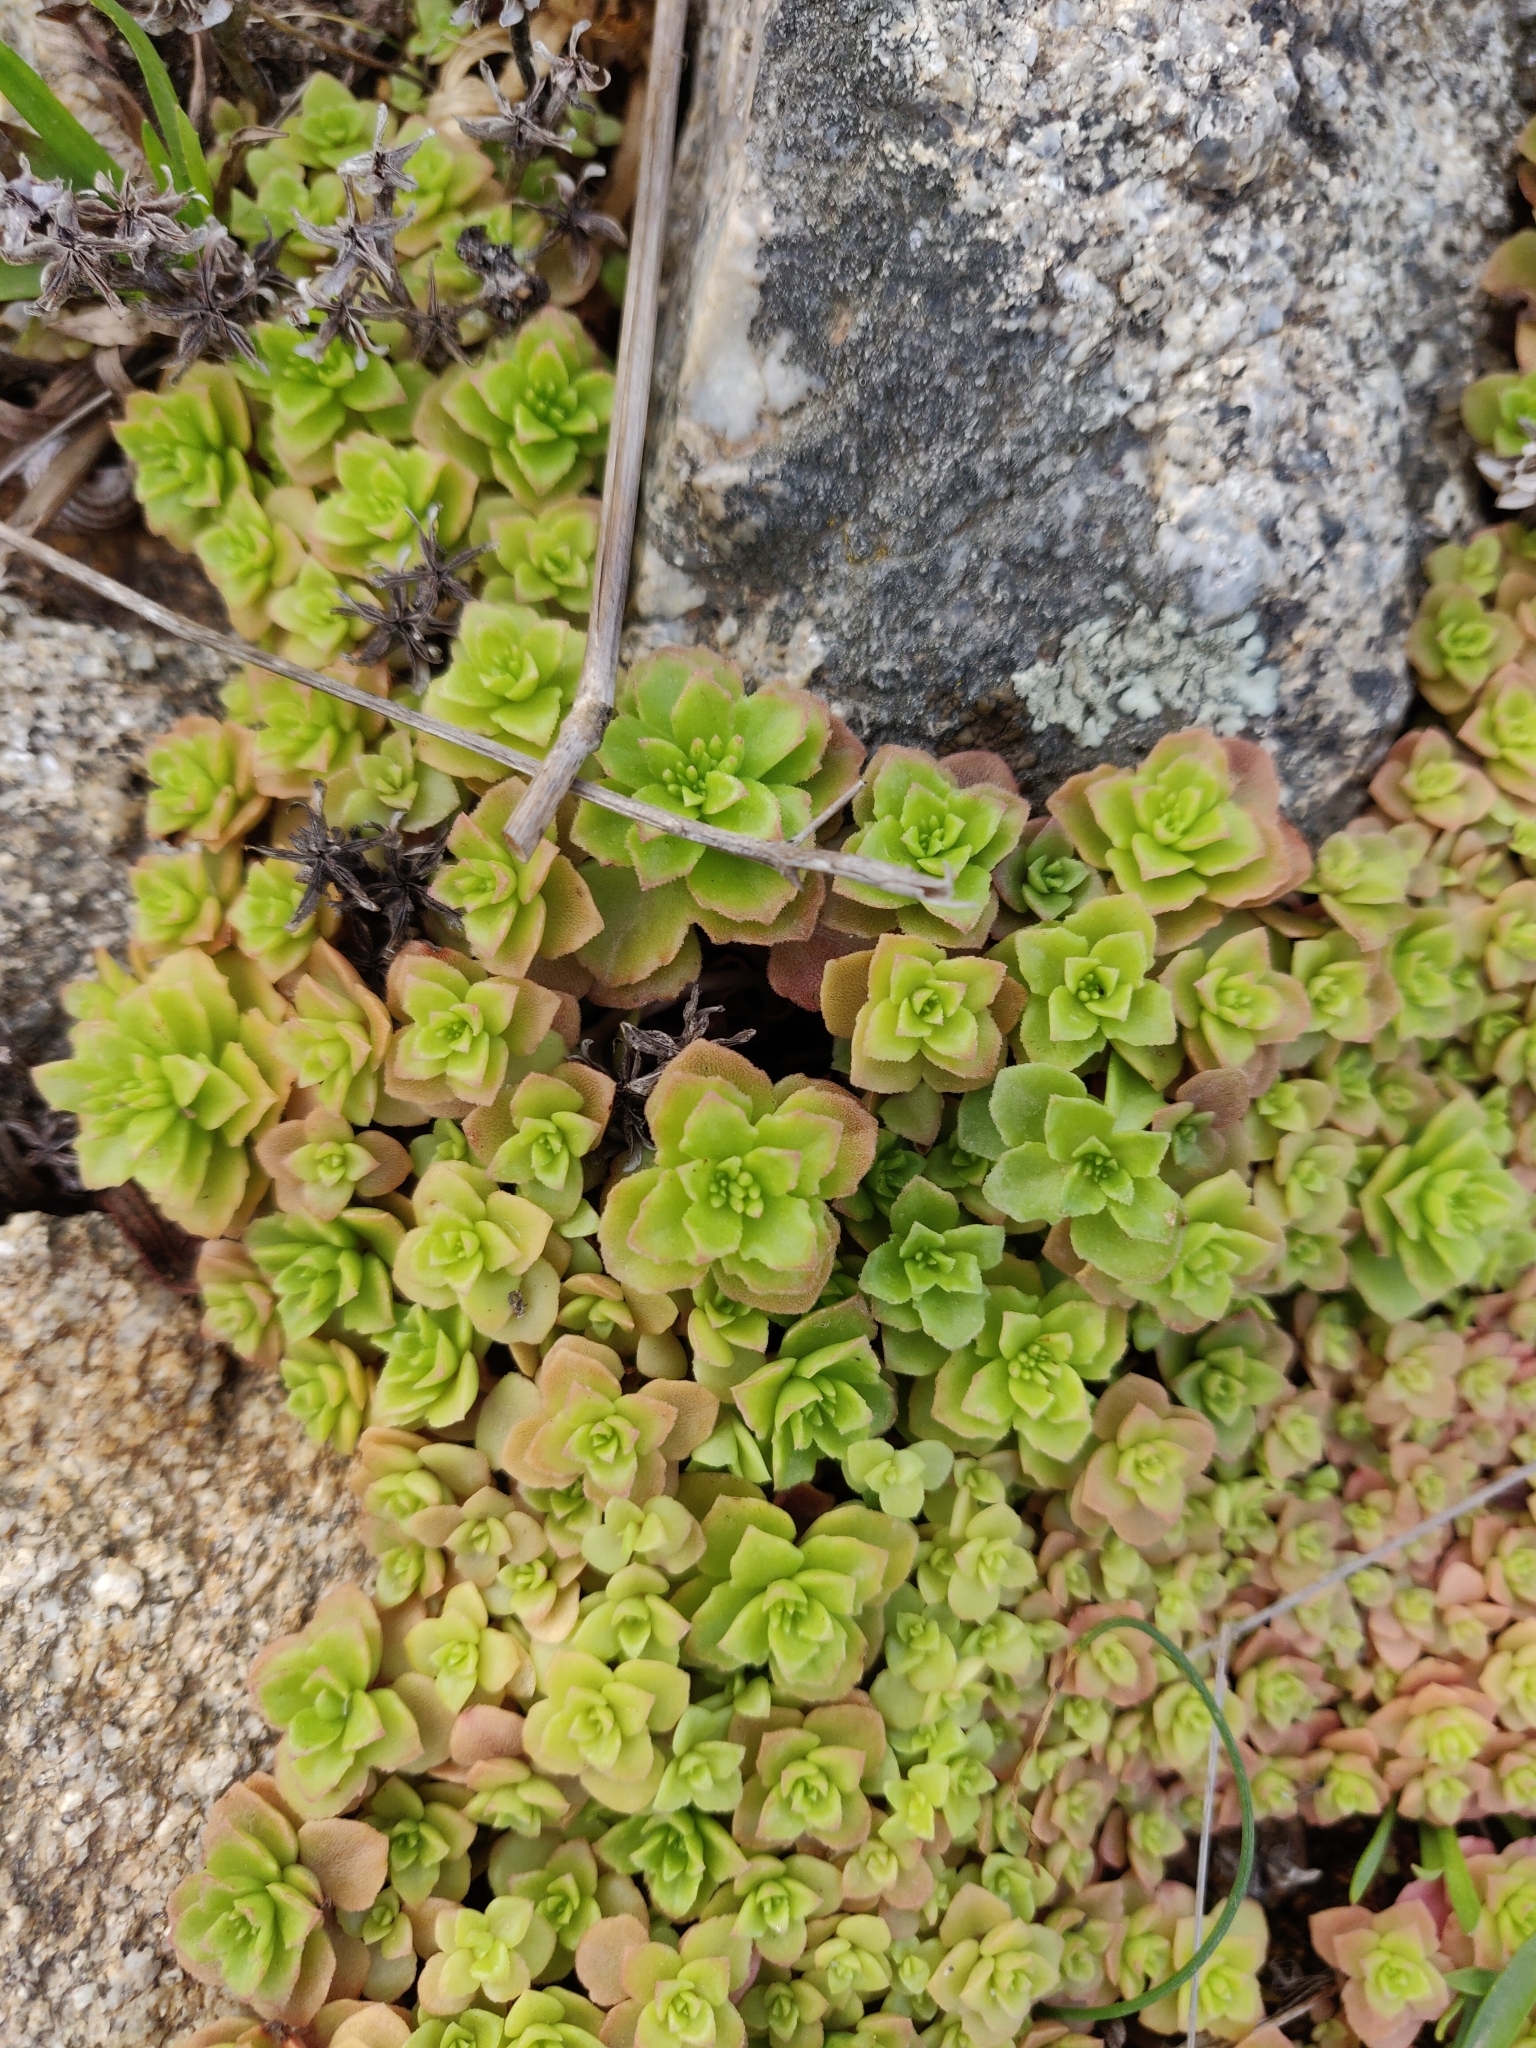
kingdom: Plantae
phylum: Tracheophyta
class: Magnoliopsida
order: Saxifragales
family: Crassulaceae
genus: Phedimus
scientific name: Phedimus stellatus
